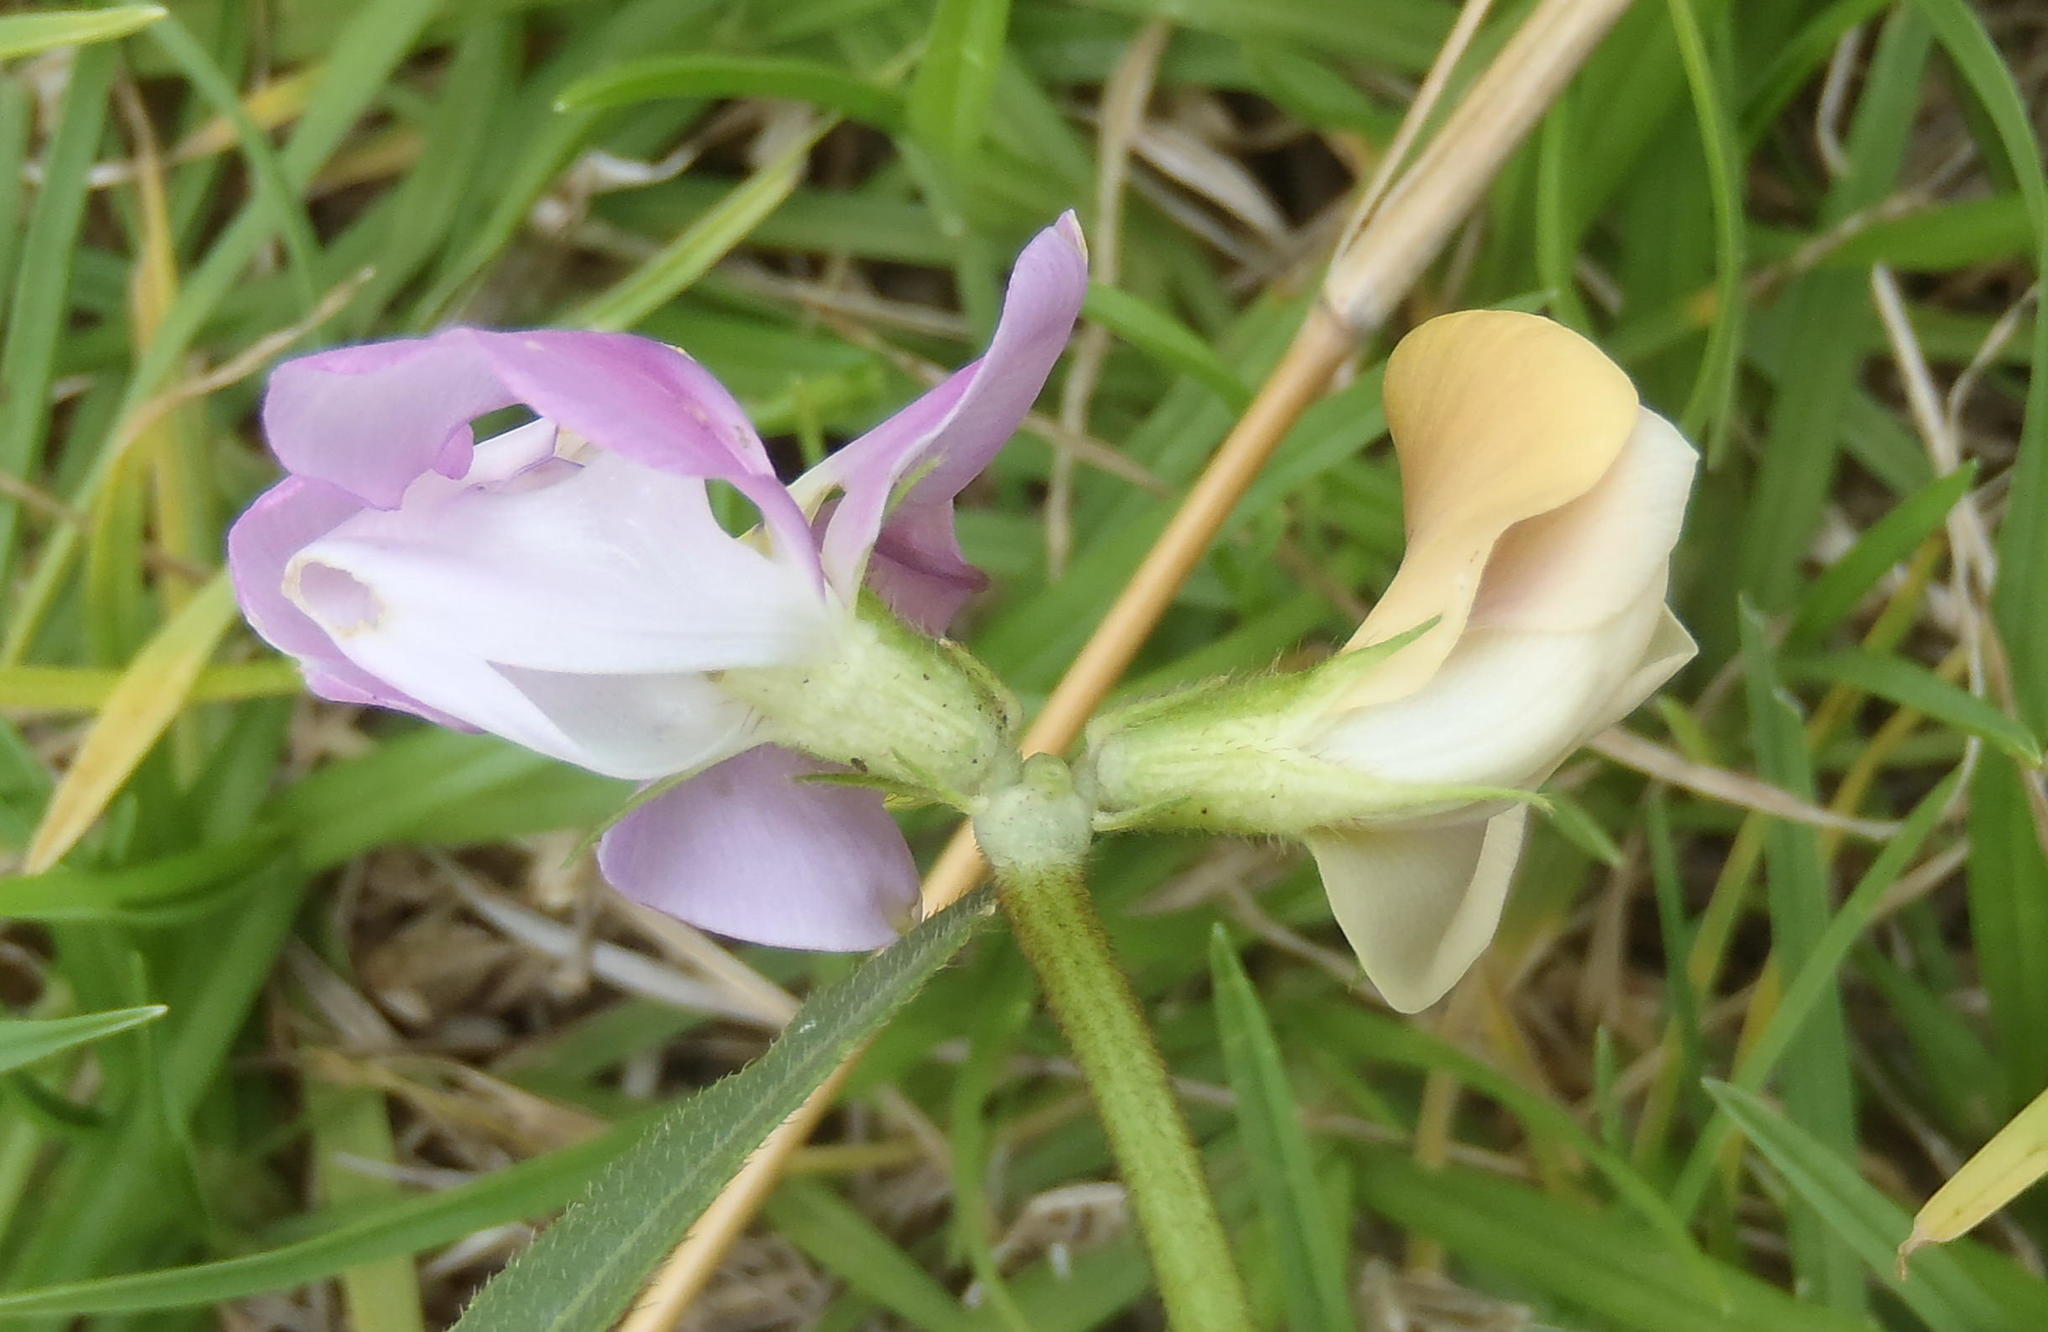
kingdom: Plantae
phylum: Tracheophyta
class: Magnoliopsida
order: Fabales
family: Fabaceae
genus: Vigna
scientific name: Vigna vexillata
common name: Zombi pea
